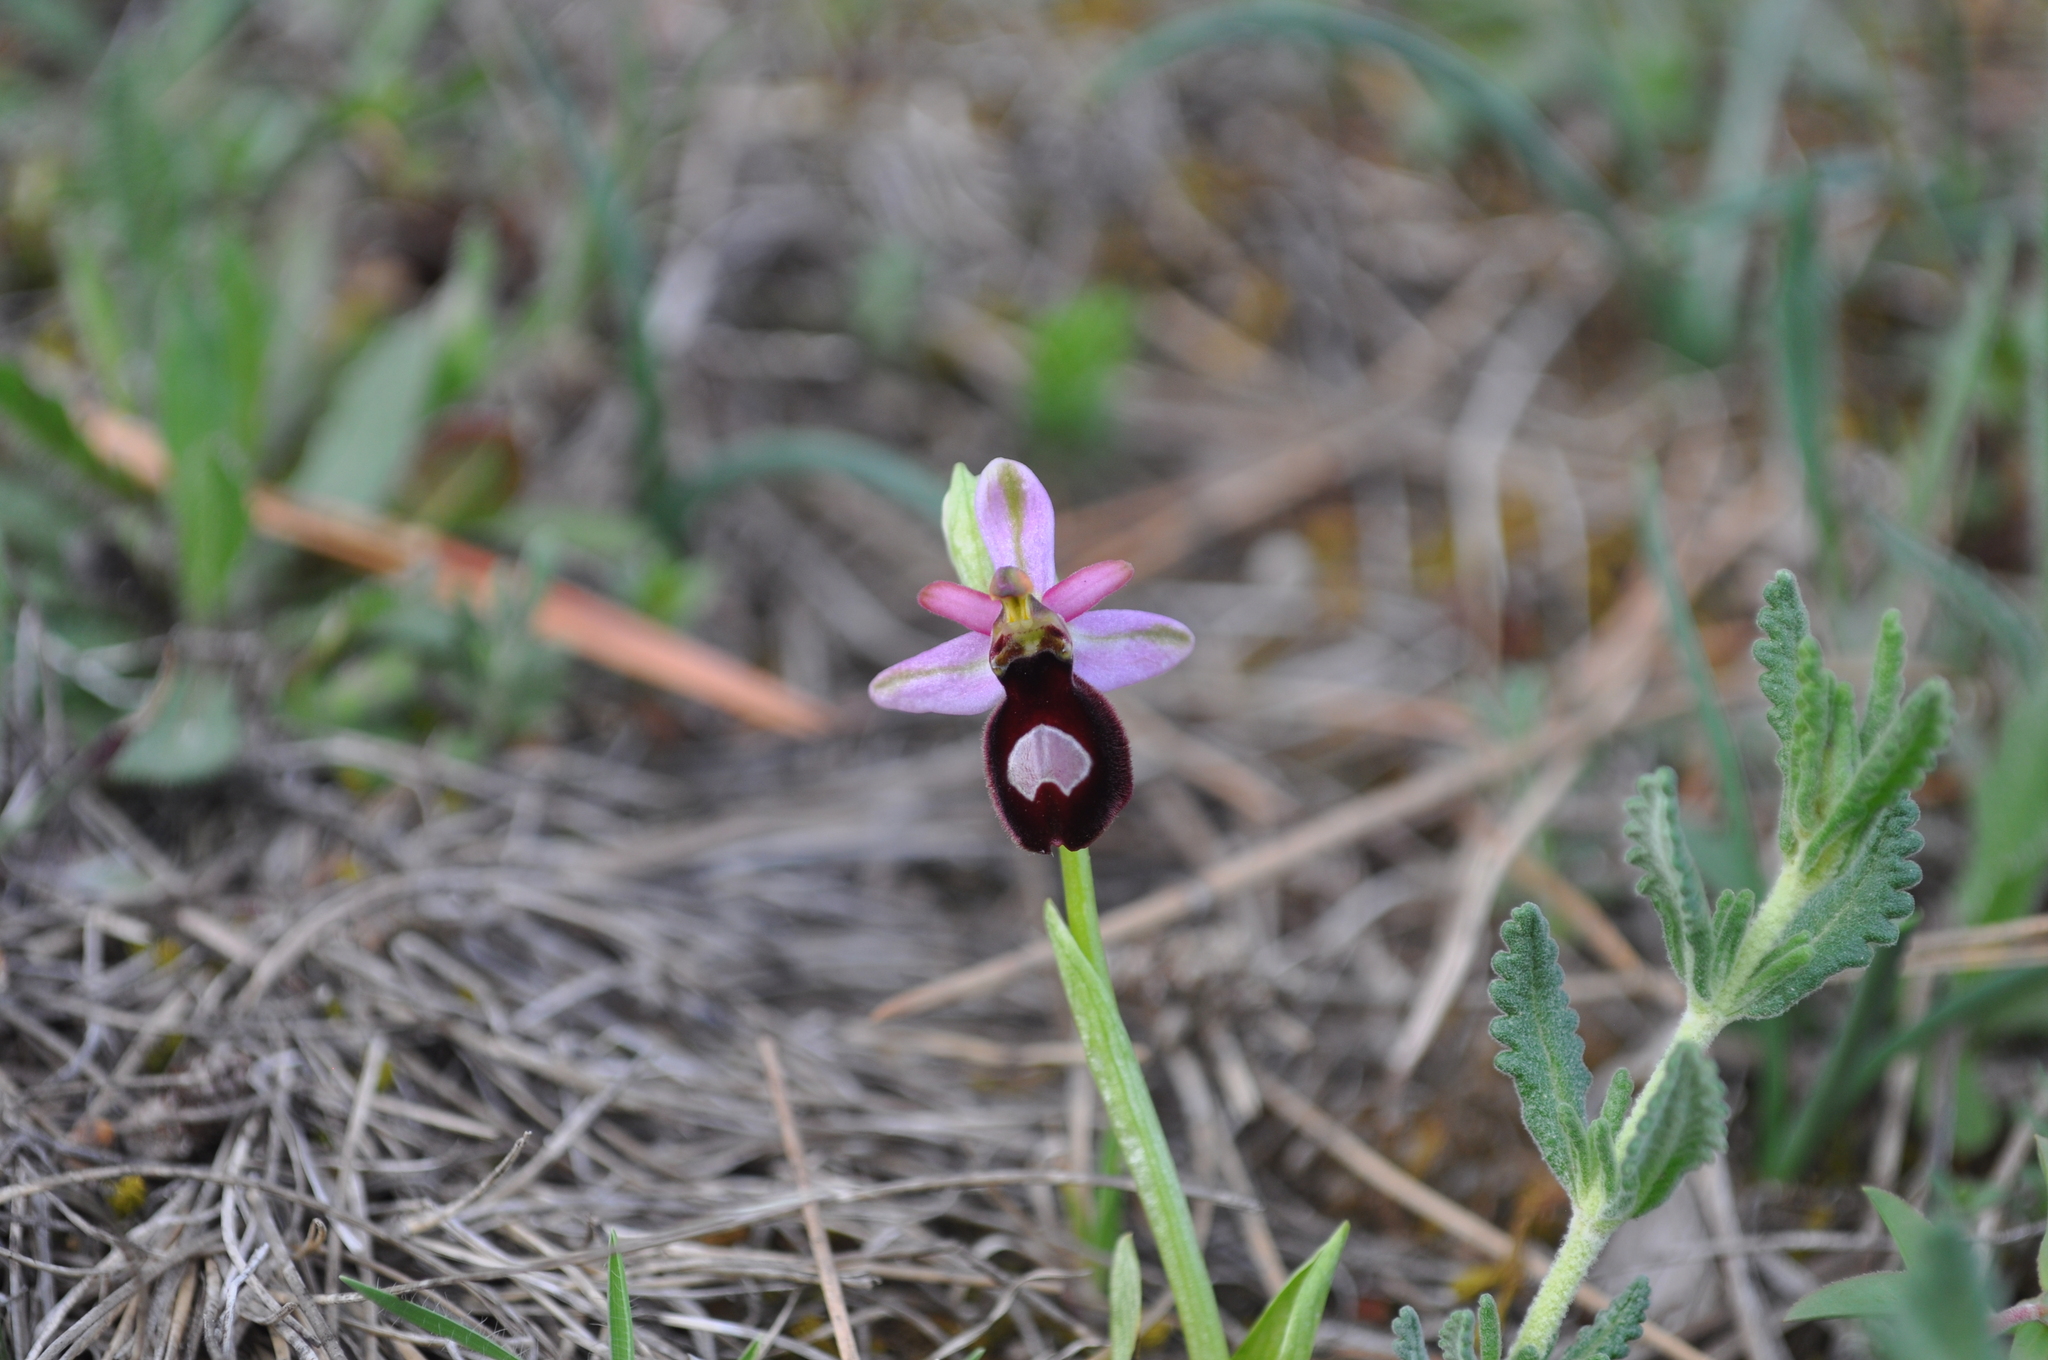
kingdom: Plantae
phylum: Tracheophyta
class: Liliopsida
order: Asparagales
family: Orchidaceae
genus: Ophrys
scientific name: Ophrys flavicans
